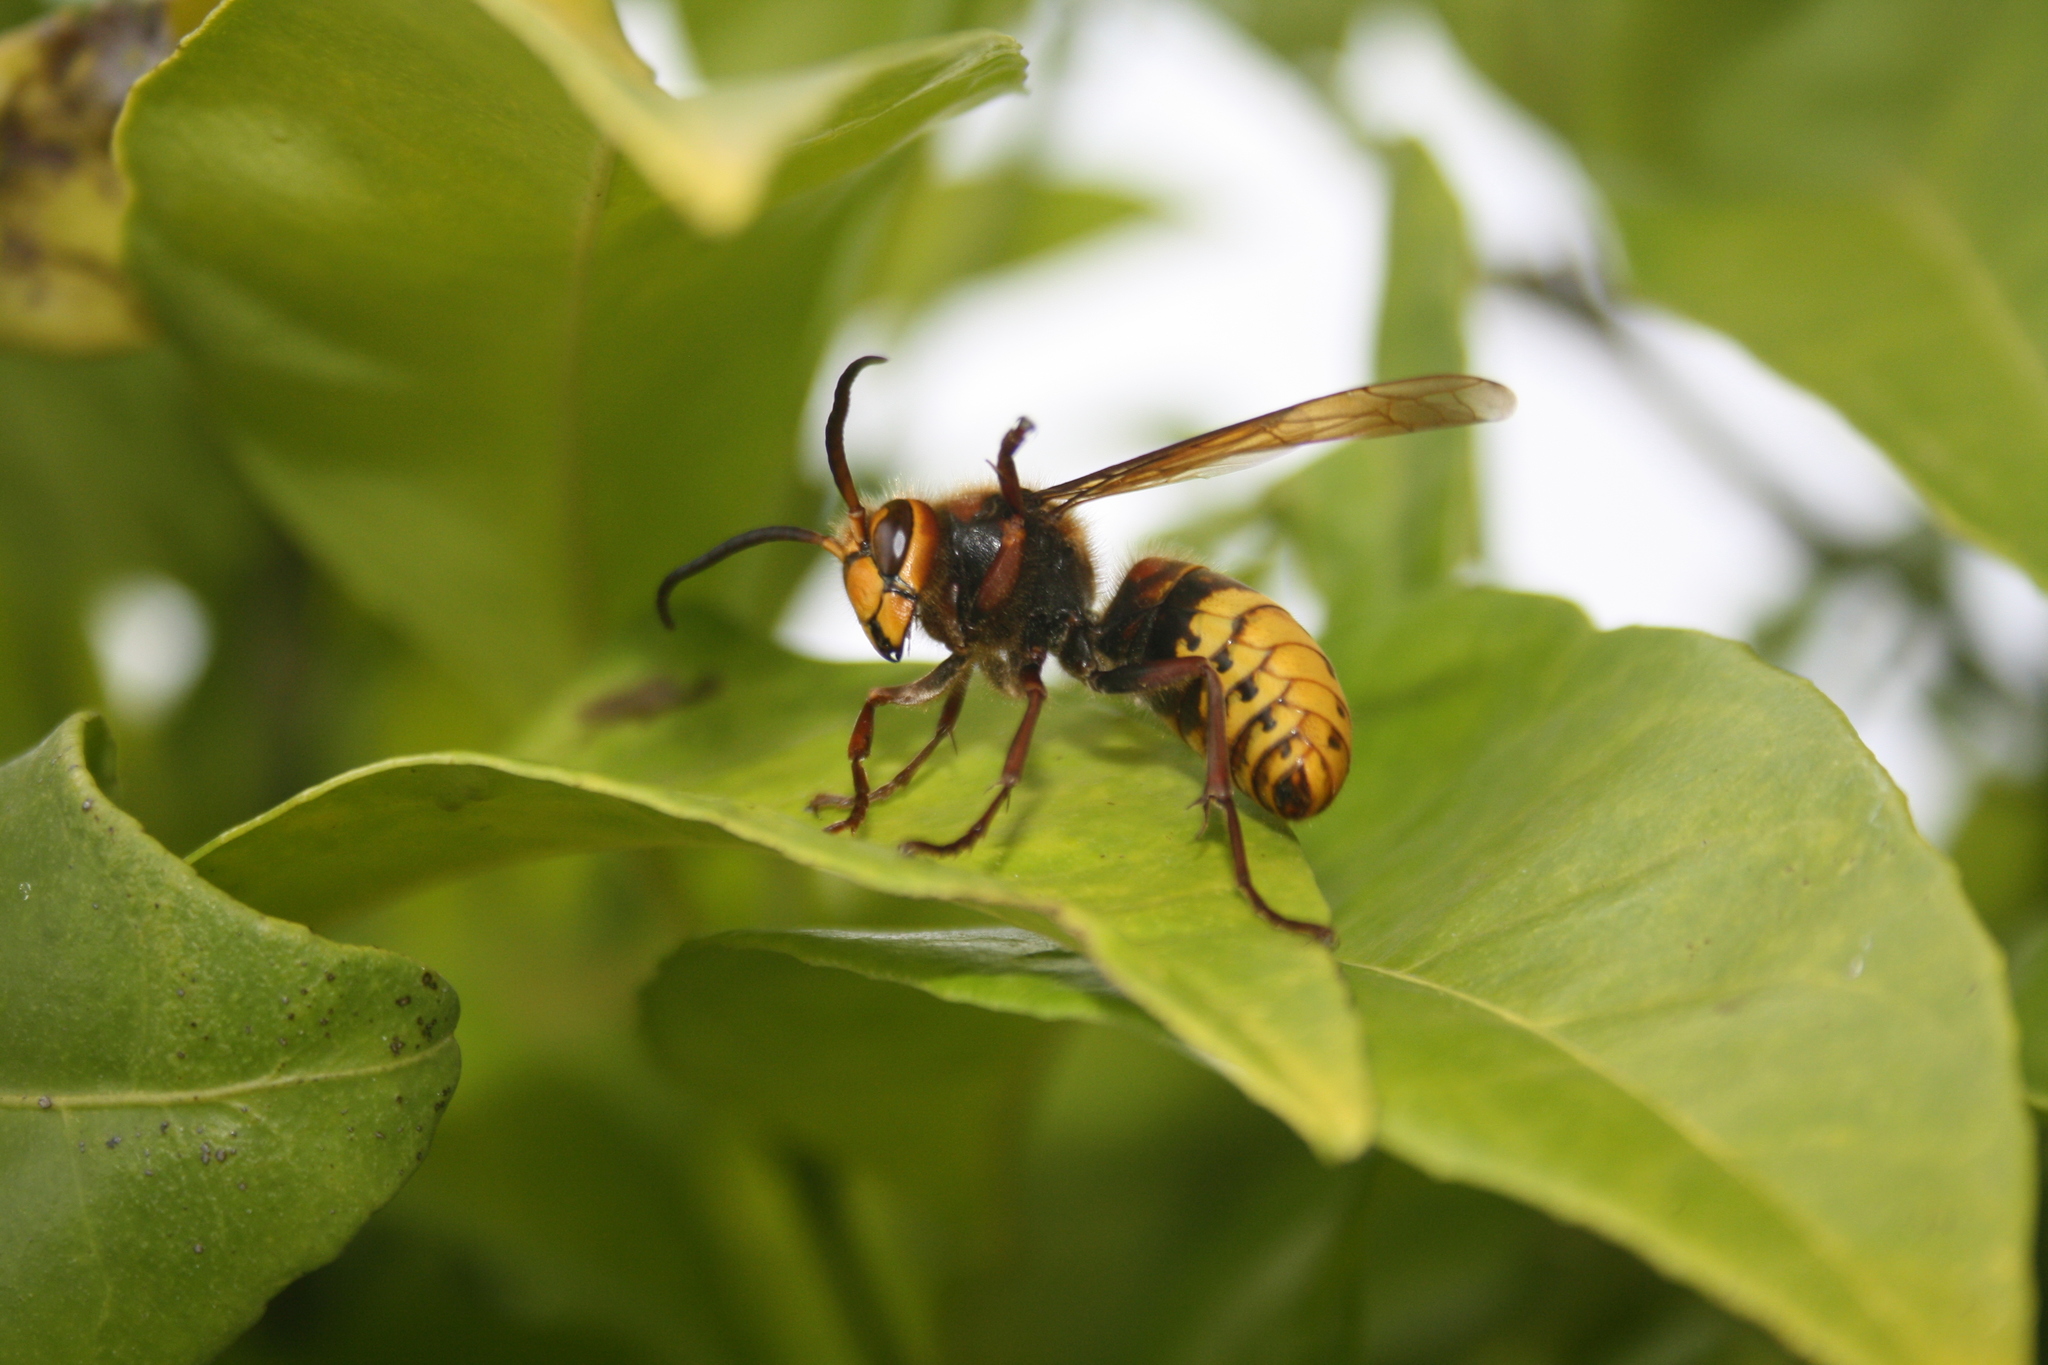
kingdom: Animalia
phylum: Arthropoda
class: Insecta
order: Hymenoptera
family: Vespidae
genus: Vespa
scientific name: Vespa crabro
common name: Hornet
